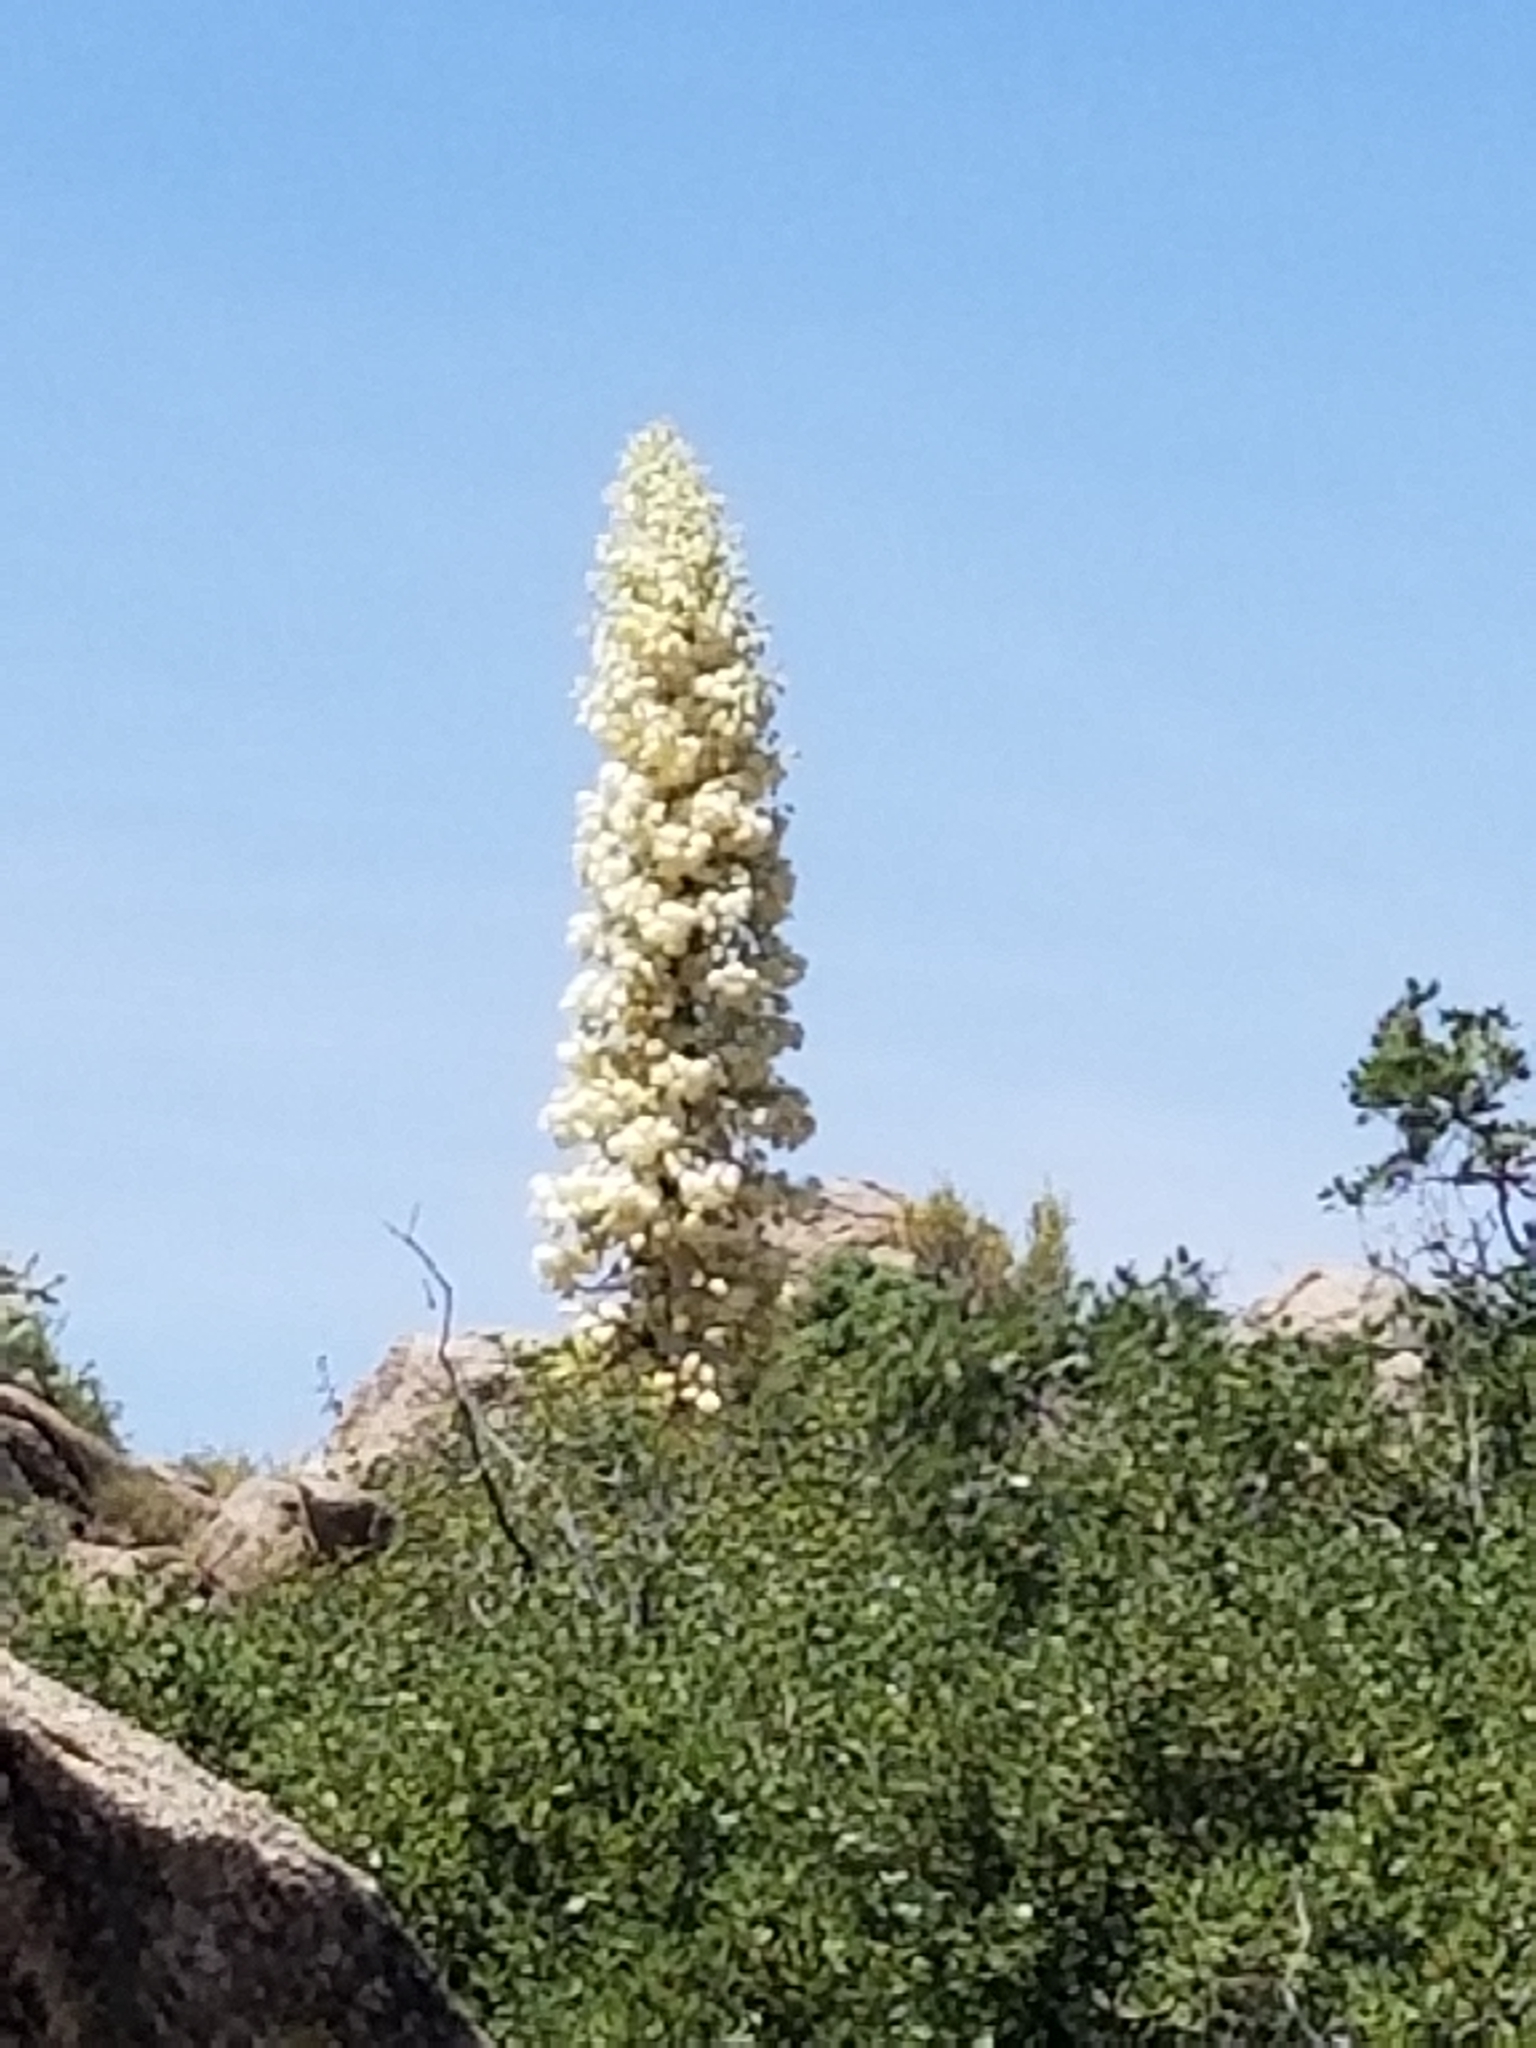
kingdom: Plantae
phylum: Tracheophyta
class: Liliopsida
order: Asparagales
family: Asparagaceae
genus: Hesperoyucca
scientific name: Hesperoyucca whipplei
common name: Our lord's-candle
